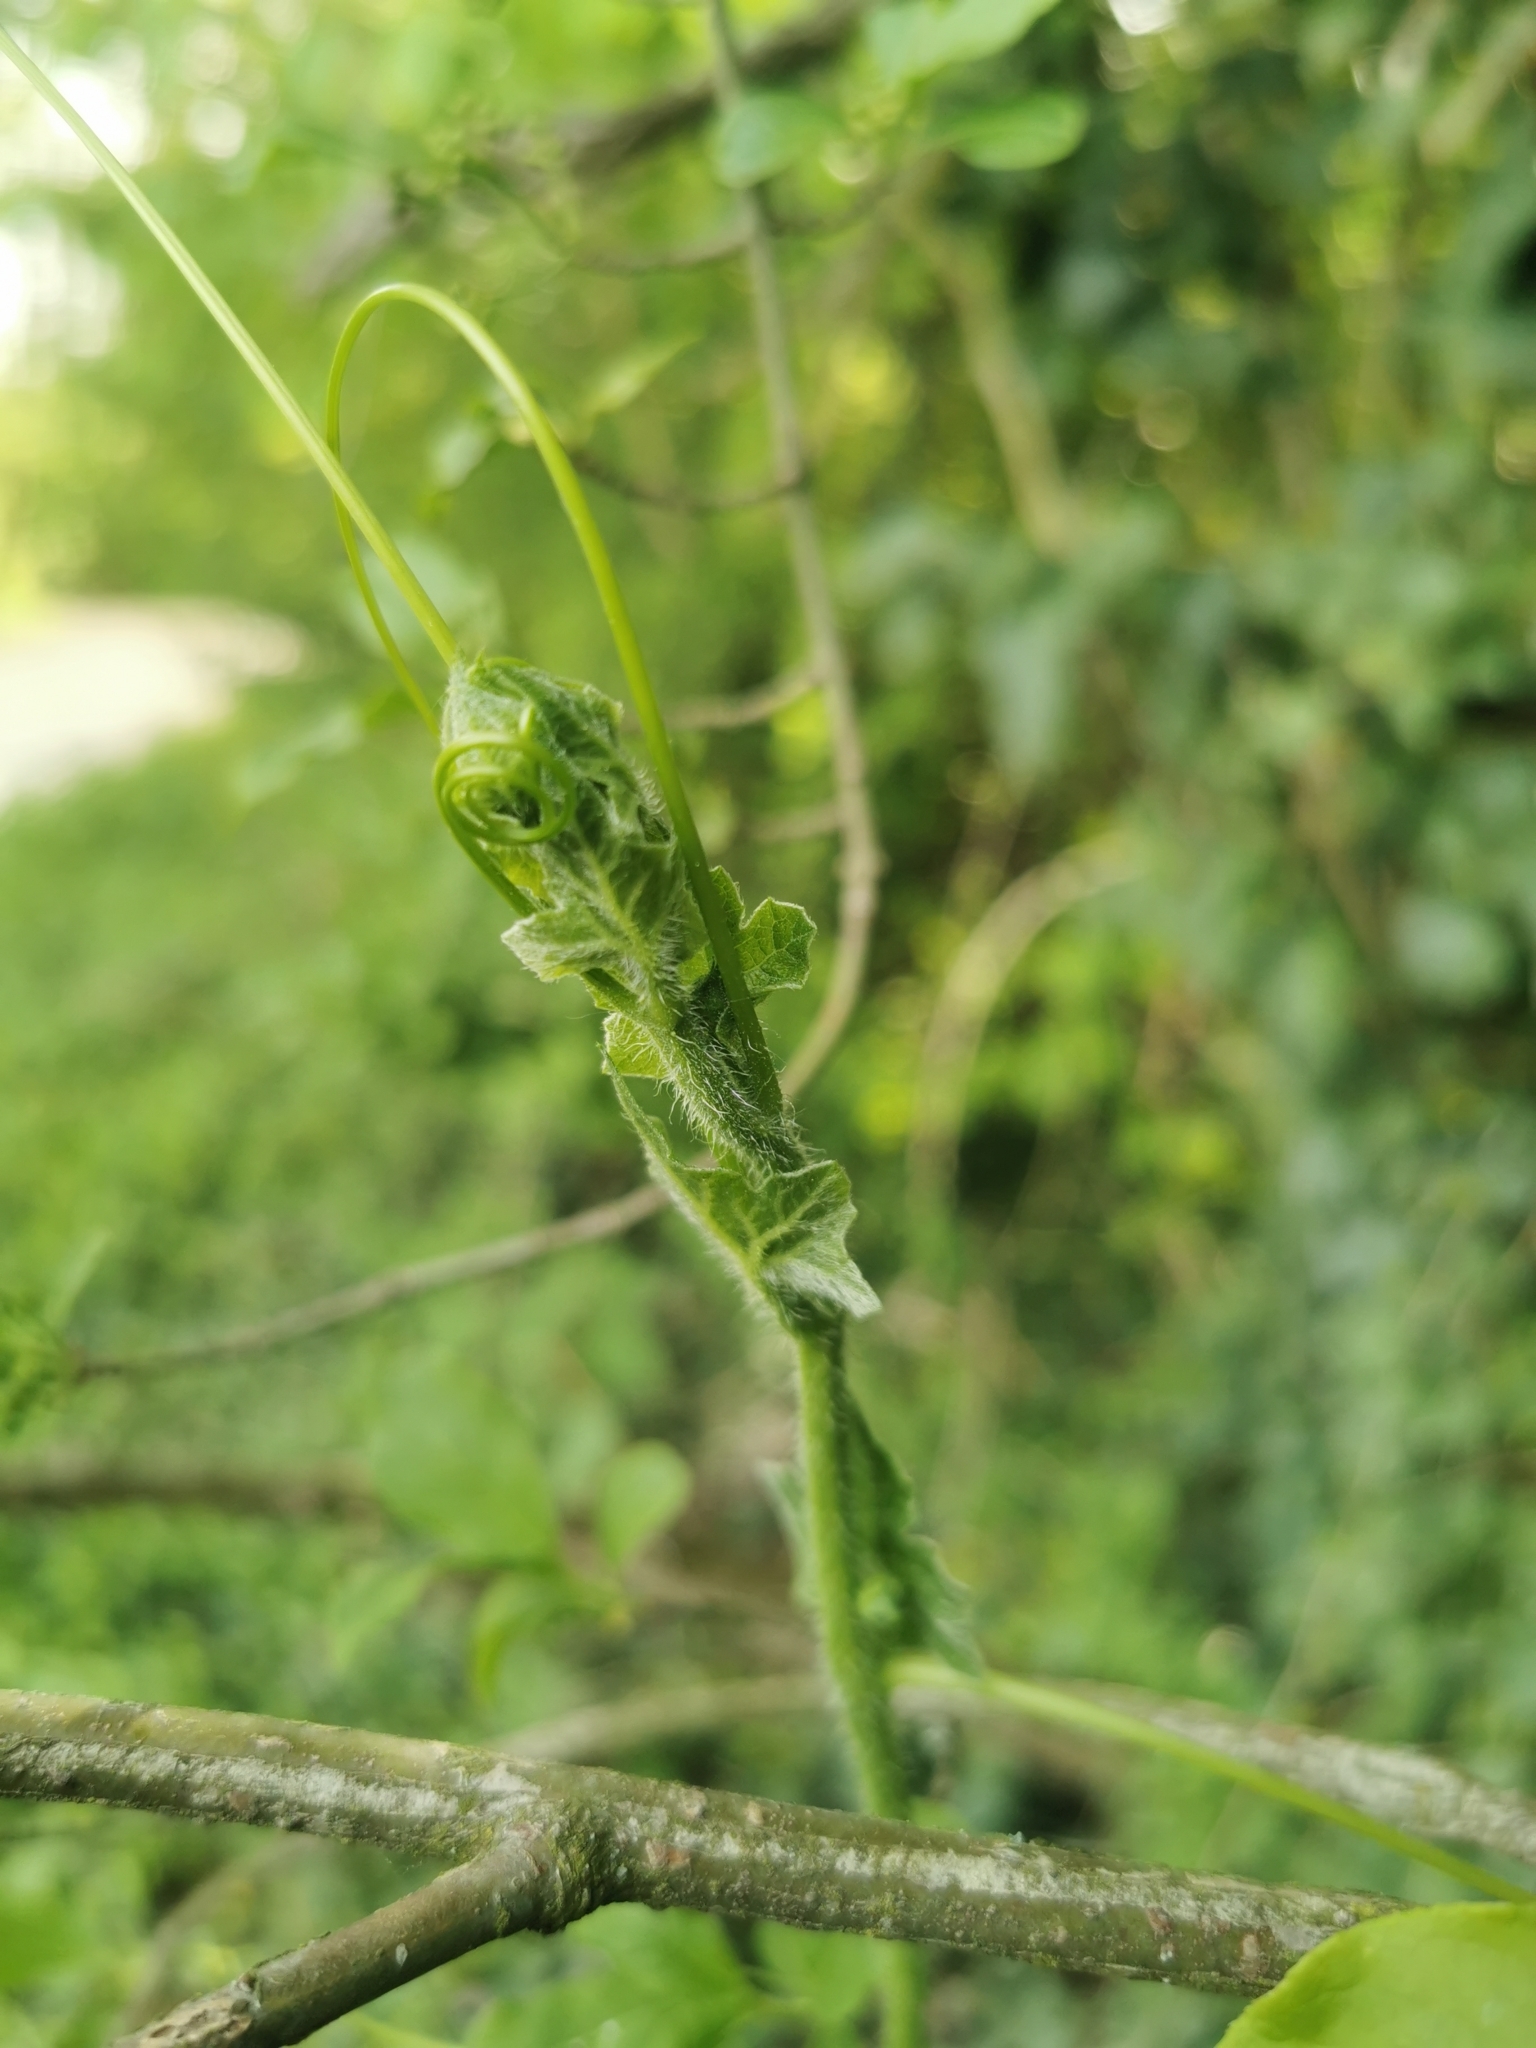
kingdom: Plantae
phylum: Tracheophyta
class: Magnoliopsida
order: Cucurbitales
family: Cucurbitaceae
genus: Bryonia
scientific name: Bryonia dioica
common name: White bryony
